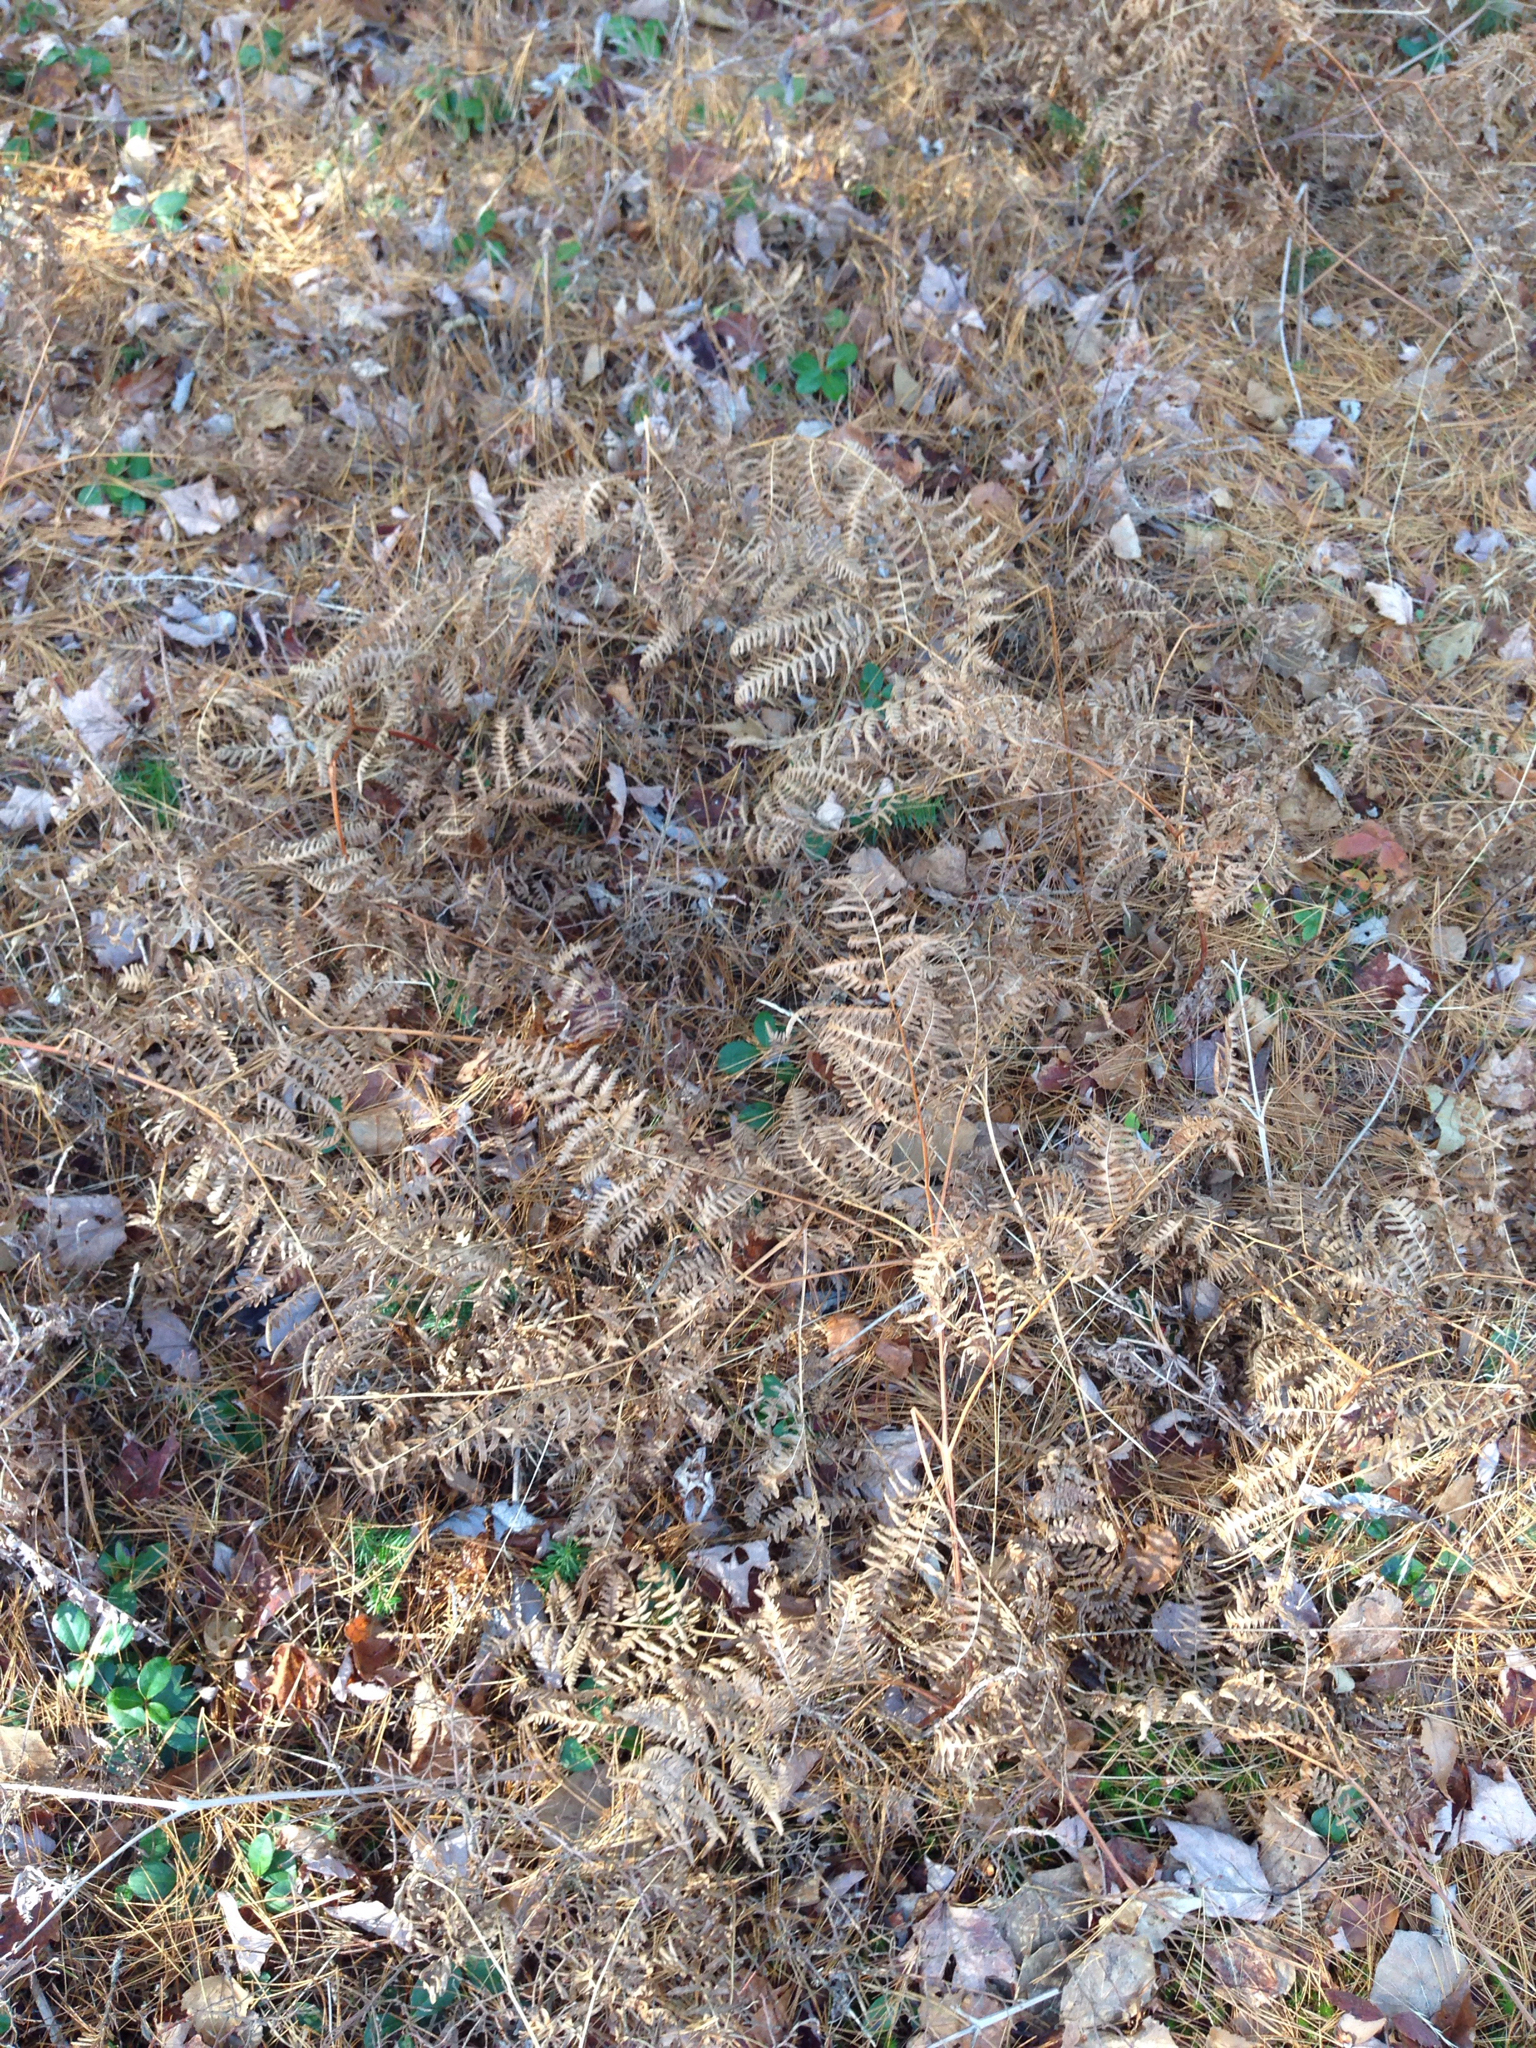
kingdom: Plantae
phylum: Tracheophyta
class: Polypodiopsida
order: Polypodiales
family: Dennstaedtiaceae
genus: Pteridium
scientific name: Pteridium aquilinum
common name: Bracken
